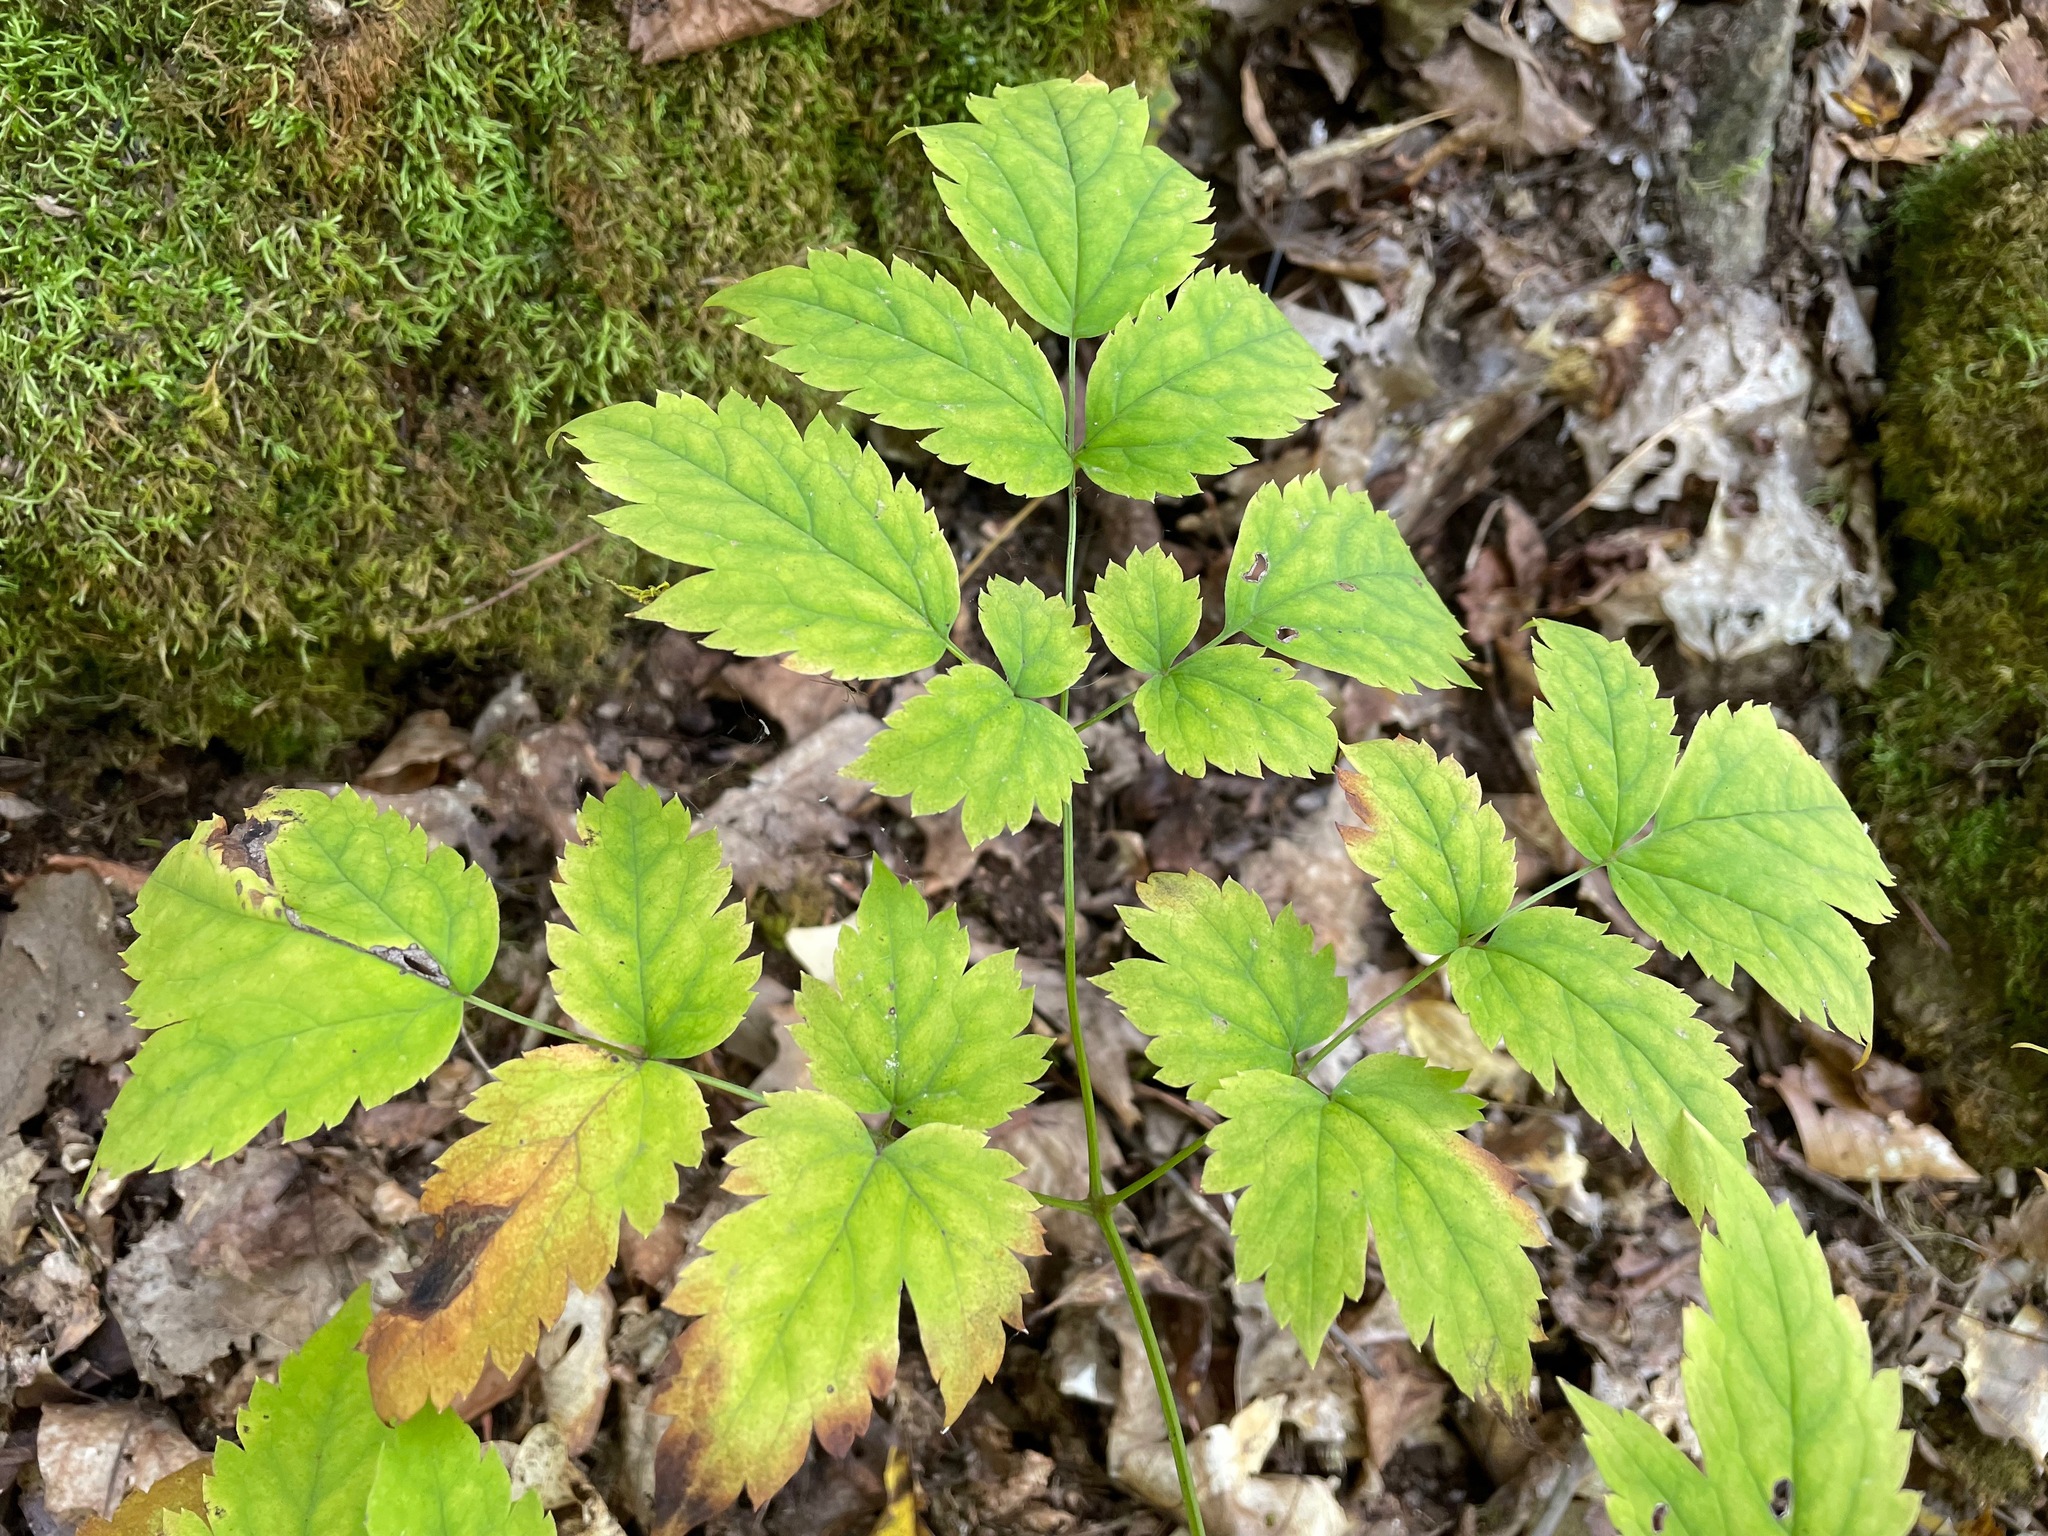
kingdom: Plantae
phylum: Tracheophyta
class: Magnoliopsida
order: Ranunculales
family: Ranunculaceae
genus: Actaea
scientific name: Actaea pachypoda
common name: Doll's-eyes
